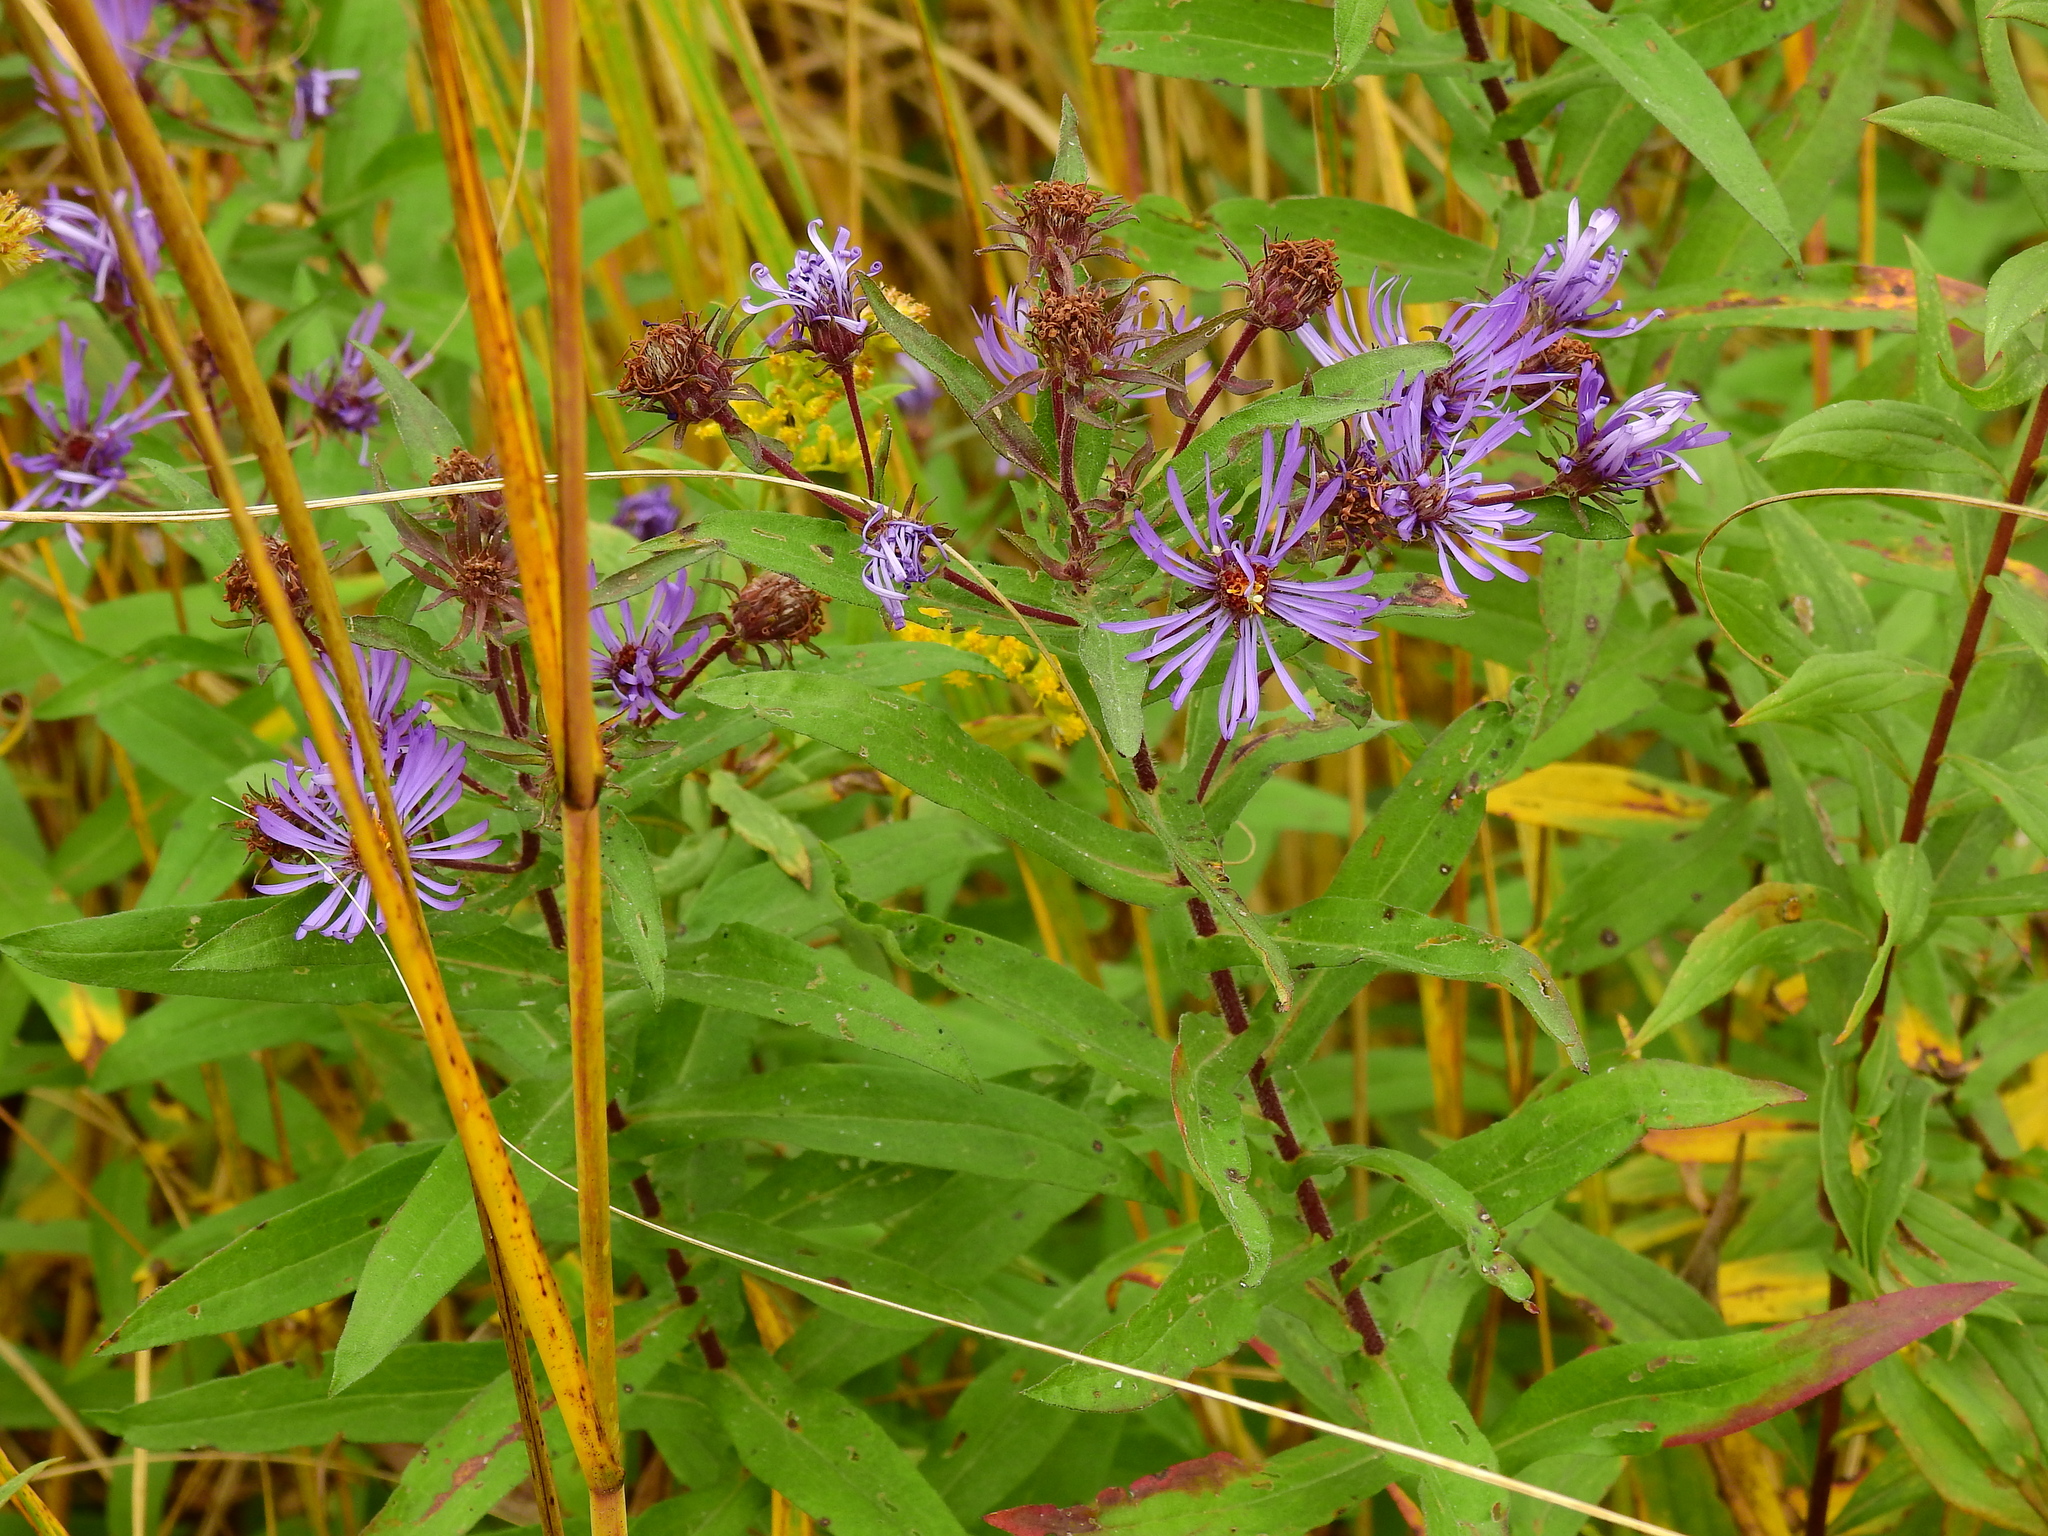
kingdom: Plantae
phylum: Tracheophyta
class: Magnoliopsida
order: Asterales
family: Asteraceae
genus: Symphyotrichum
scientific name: Symphyotrichum novae-angliae
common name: Michaelmas daisy
